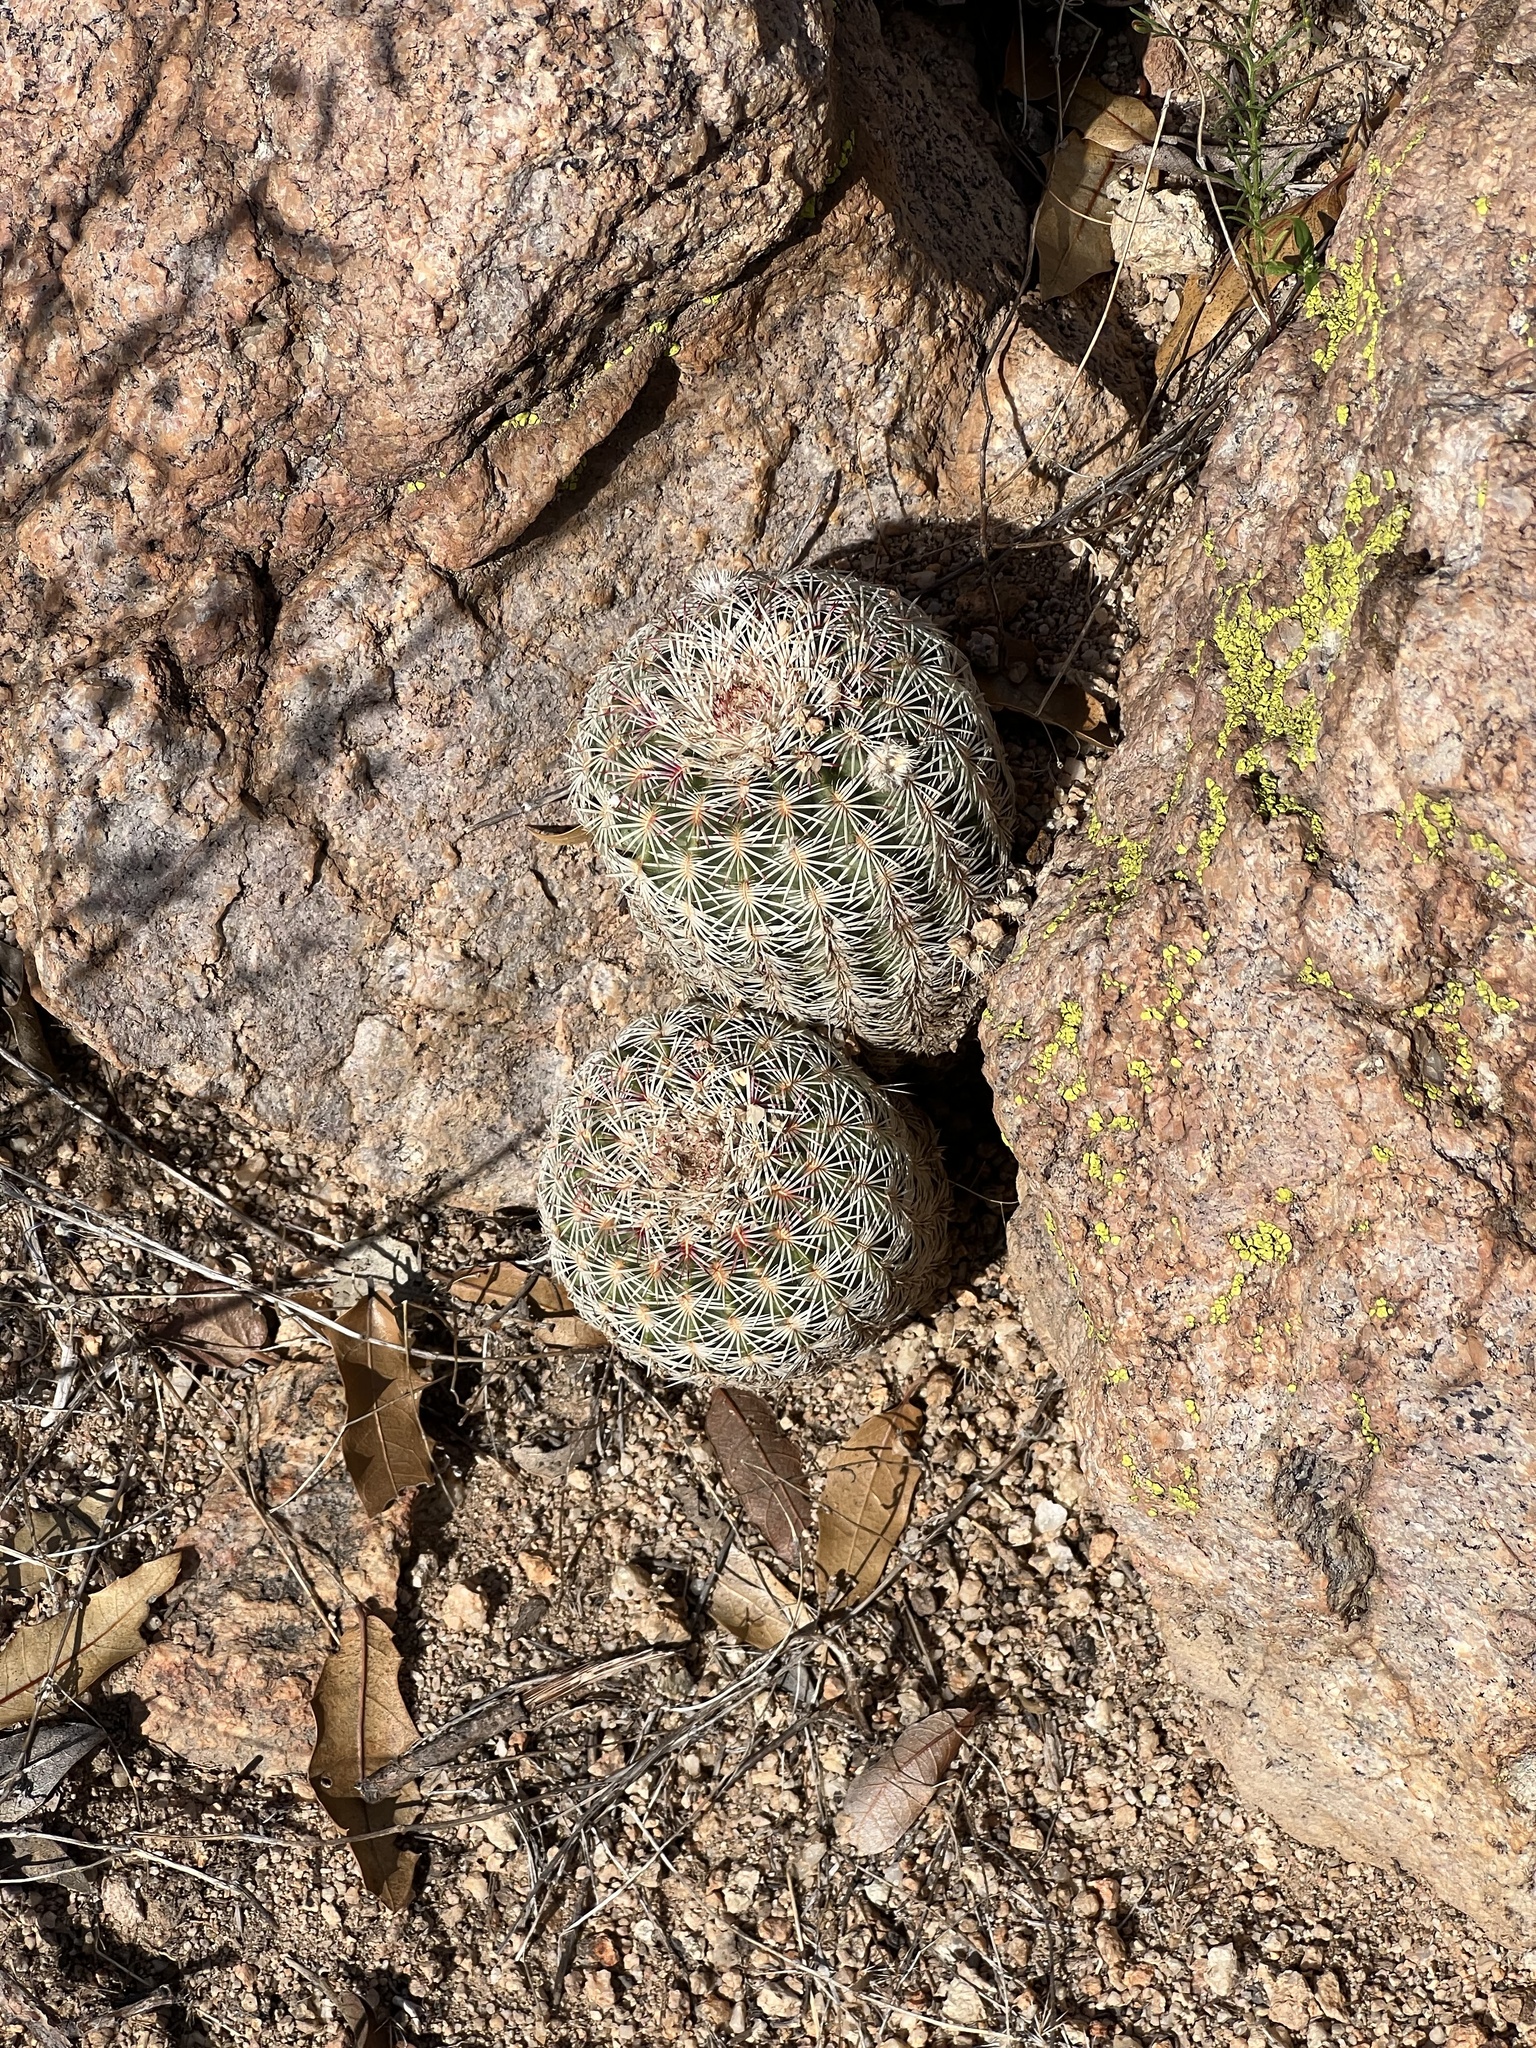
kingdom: Plantae
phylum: Tracheophyta
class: Magnoliopsida
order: Caryophyllales
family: Cactaceae
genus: Echinocereus
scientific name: Echinocereus rigidissimus
